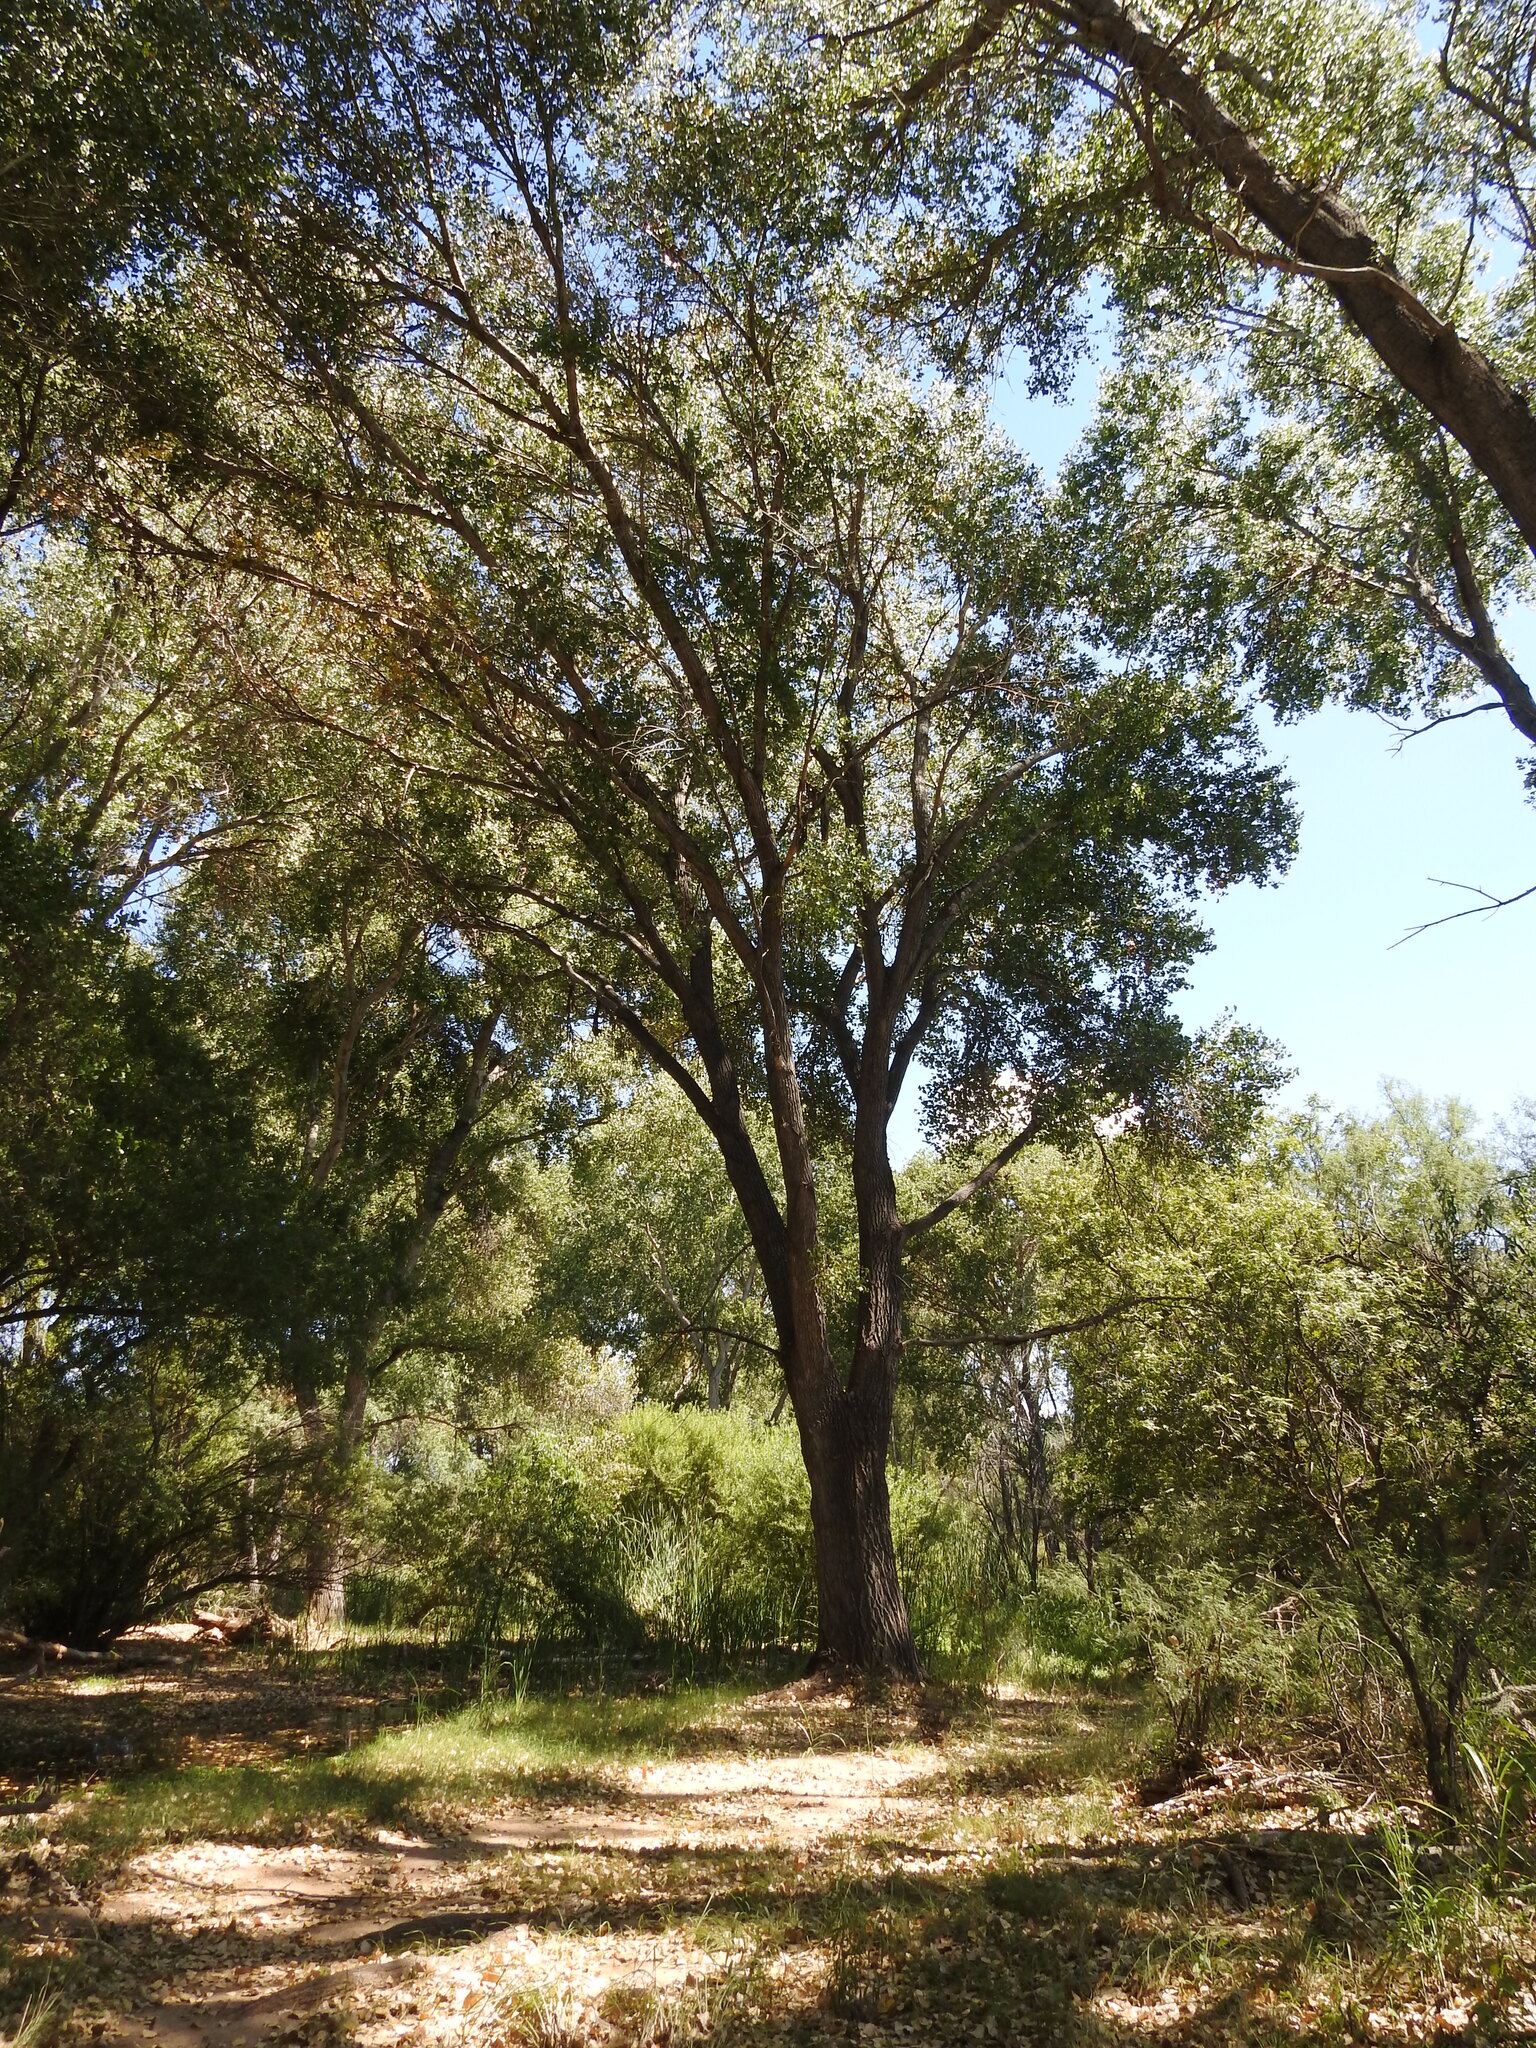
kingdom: Plantae
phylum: Tracheophyta
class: Magnoliopsida
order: Malpighiales
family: Salicaceae
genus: Populus
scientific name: Populus fremontii
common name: Fremont's cottonwood
